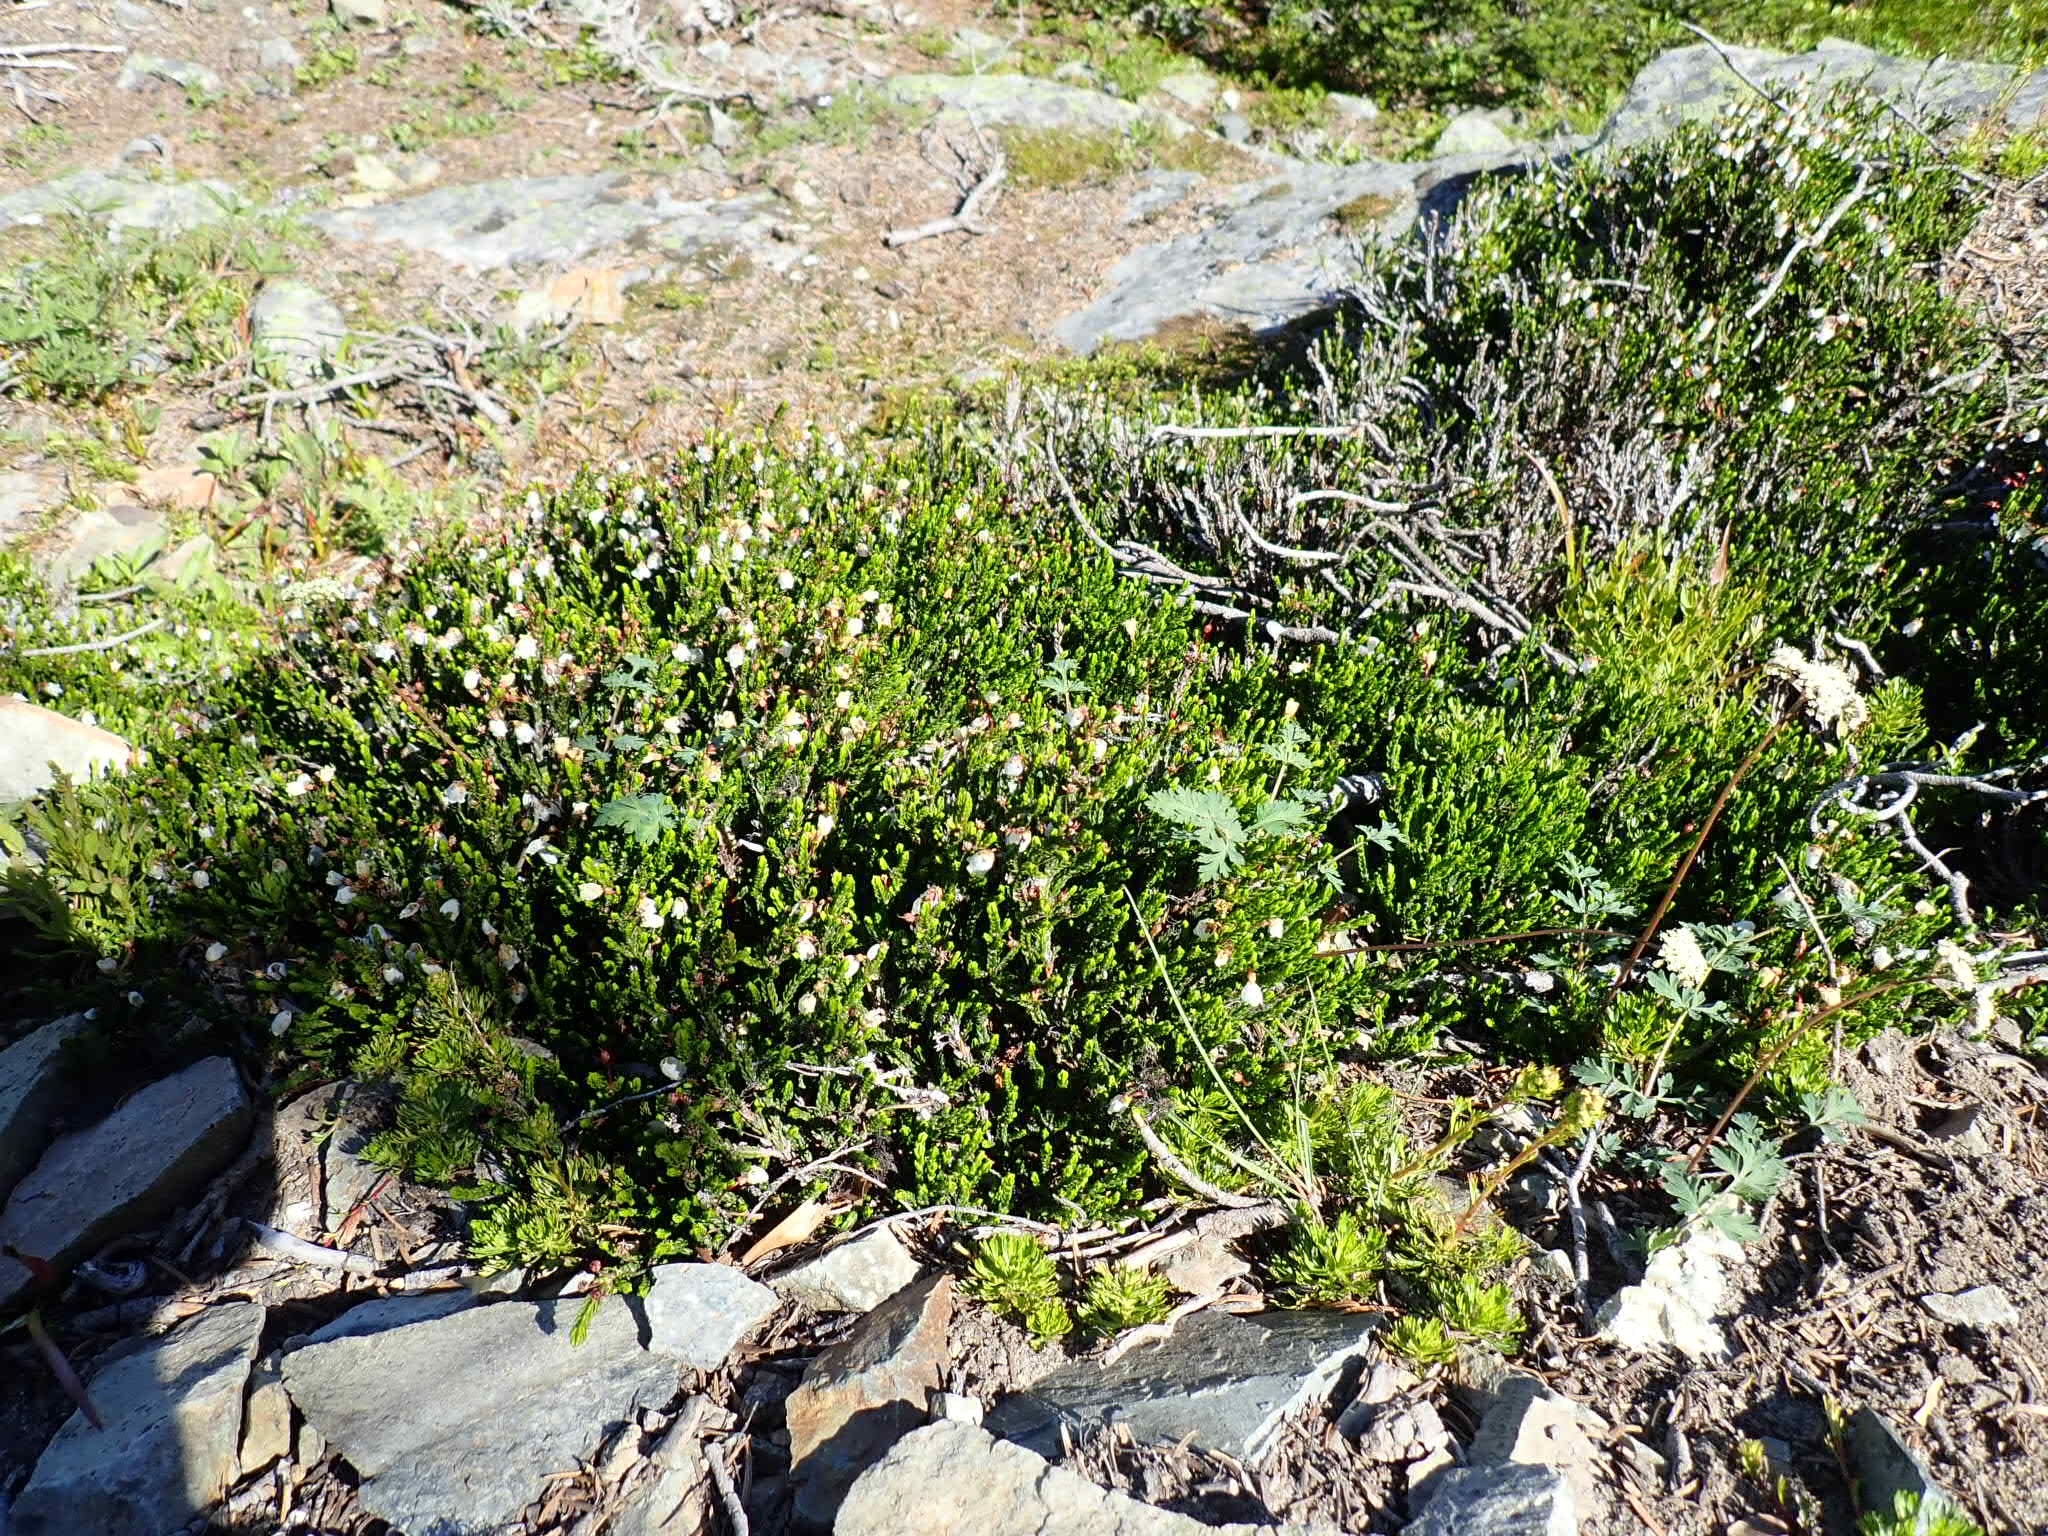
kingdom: Plantae
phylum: Tracheophyta
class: Magnoliopsida
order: Ericales
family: Ericaceae
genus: Cassiope
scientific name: Cassiope mertensiana
